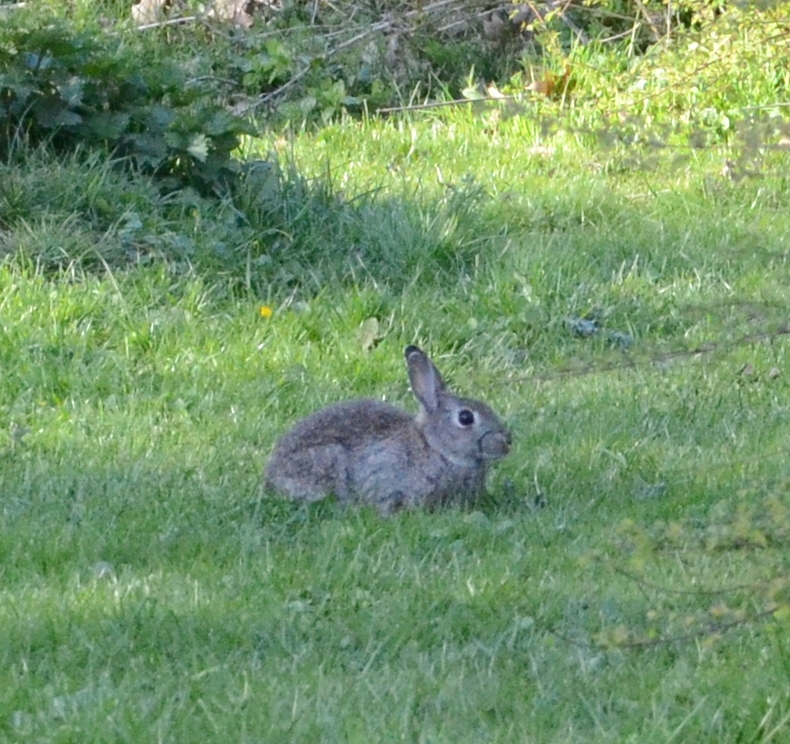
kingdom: Animalia
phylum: Chordata
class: Mammalia
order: Lagomorpha
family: Leporidae
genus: Oryctolagus
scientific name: Oryctolagus cuniculus
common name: European rabbit
